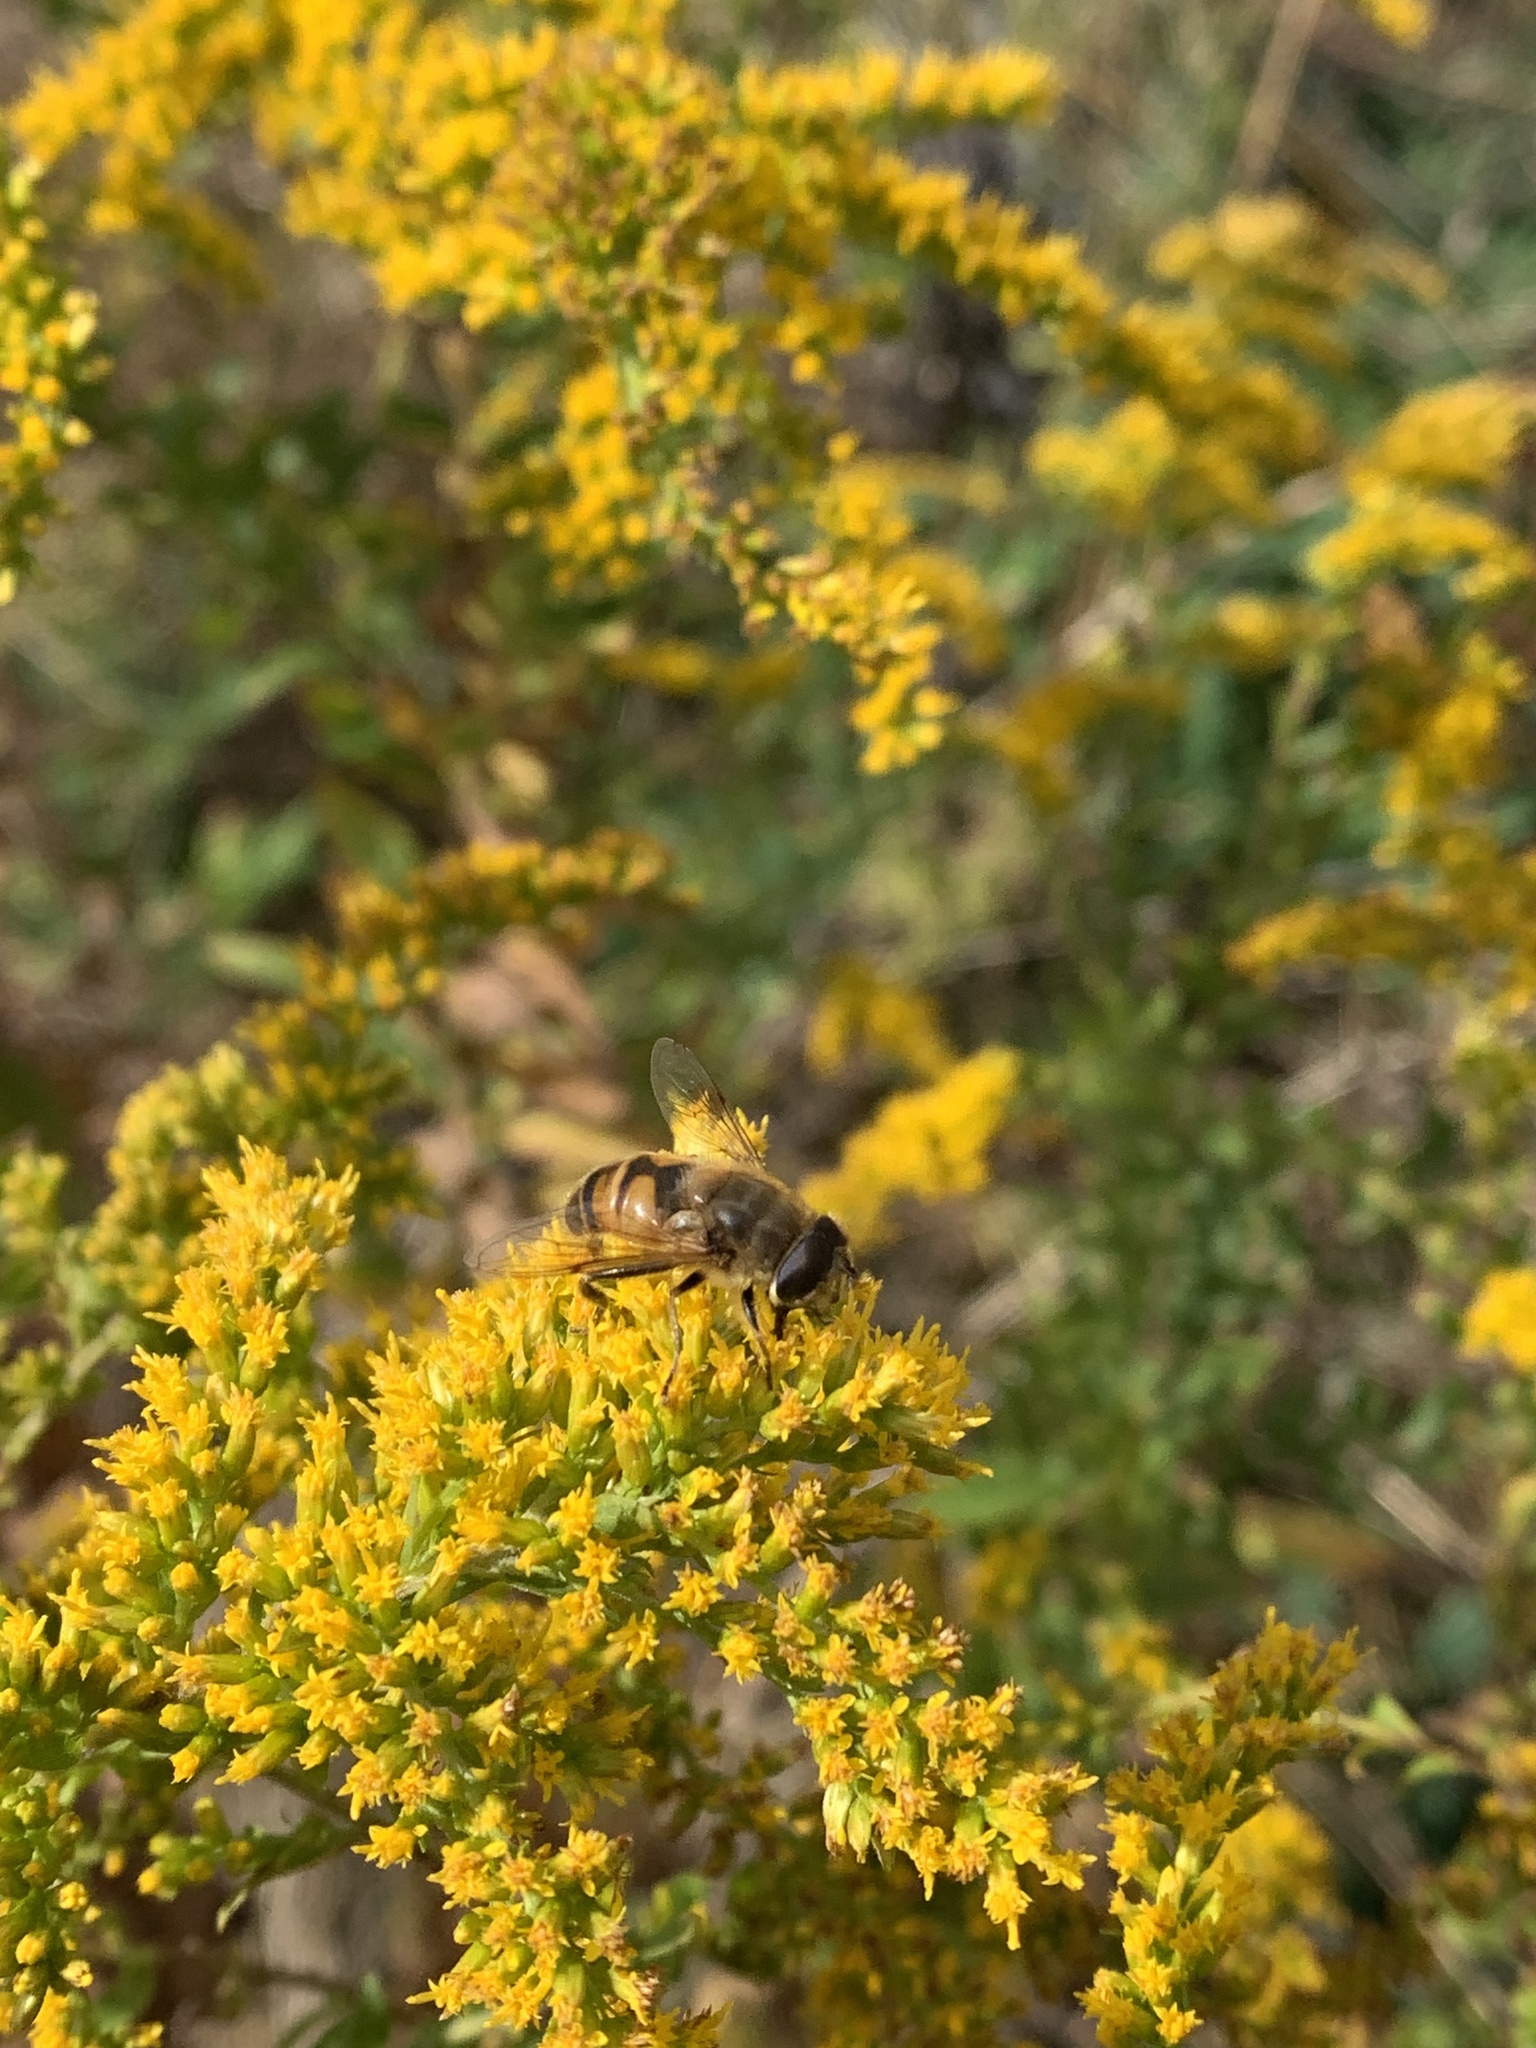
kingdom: Animalia
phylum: Arthropoda
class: Insecta
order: Diptera
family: Syrphidae
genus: Eristalis
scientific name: Eristalis tenax
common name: Drone fly
